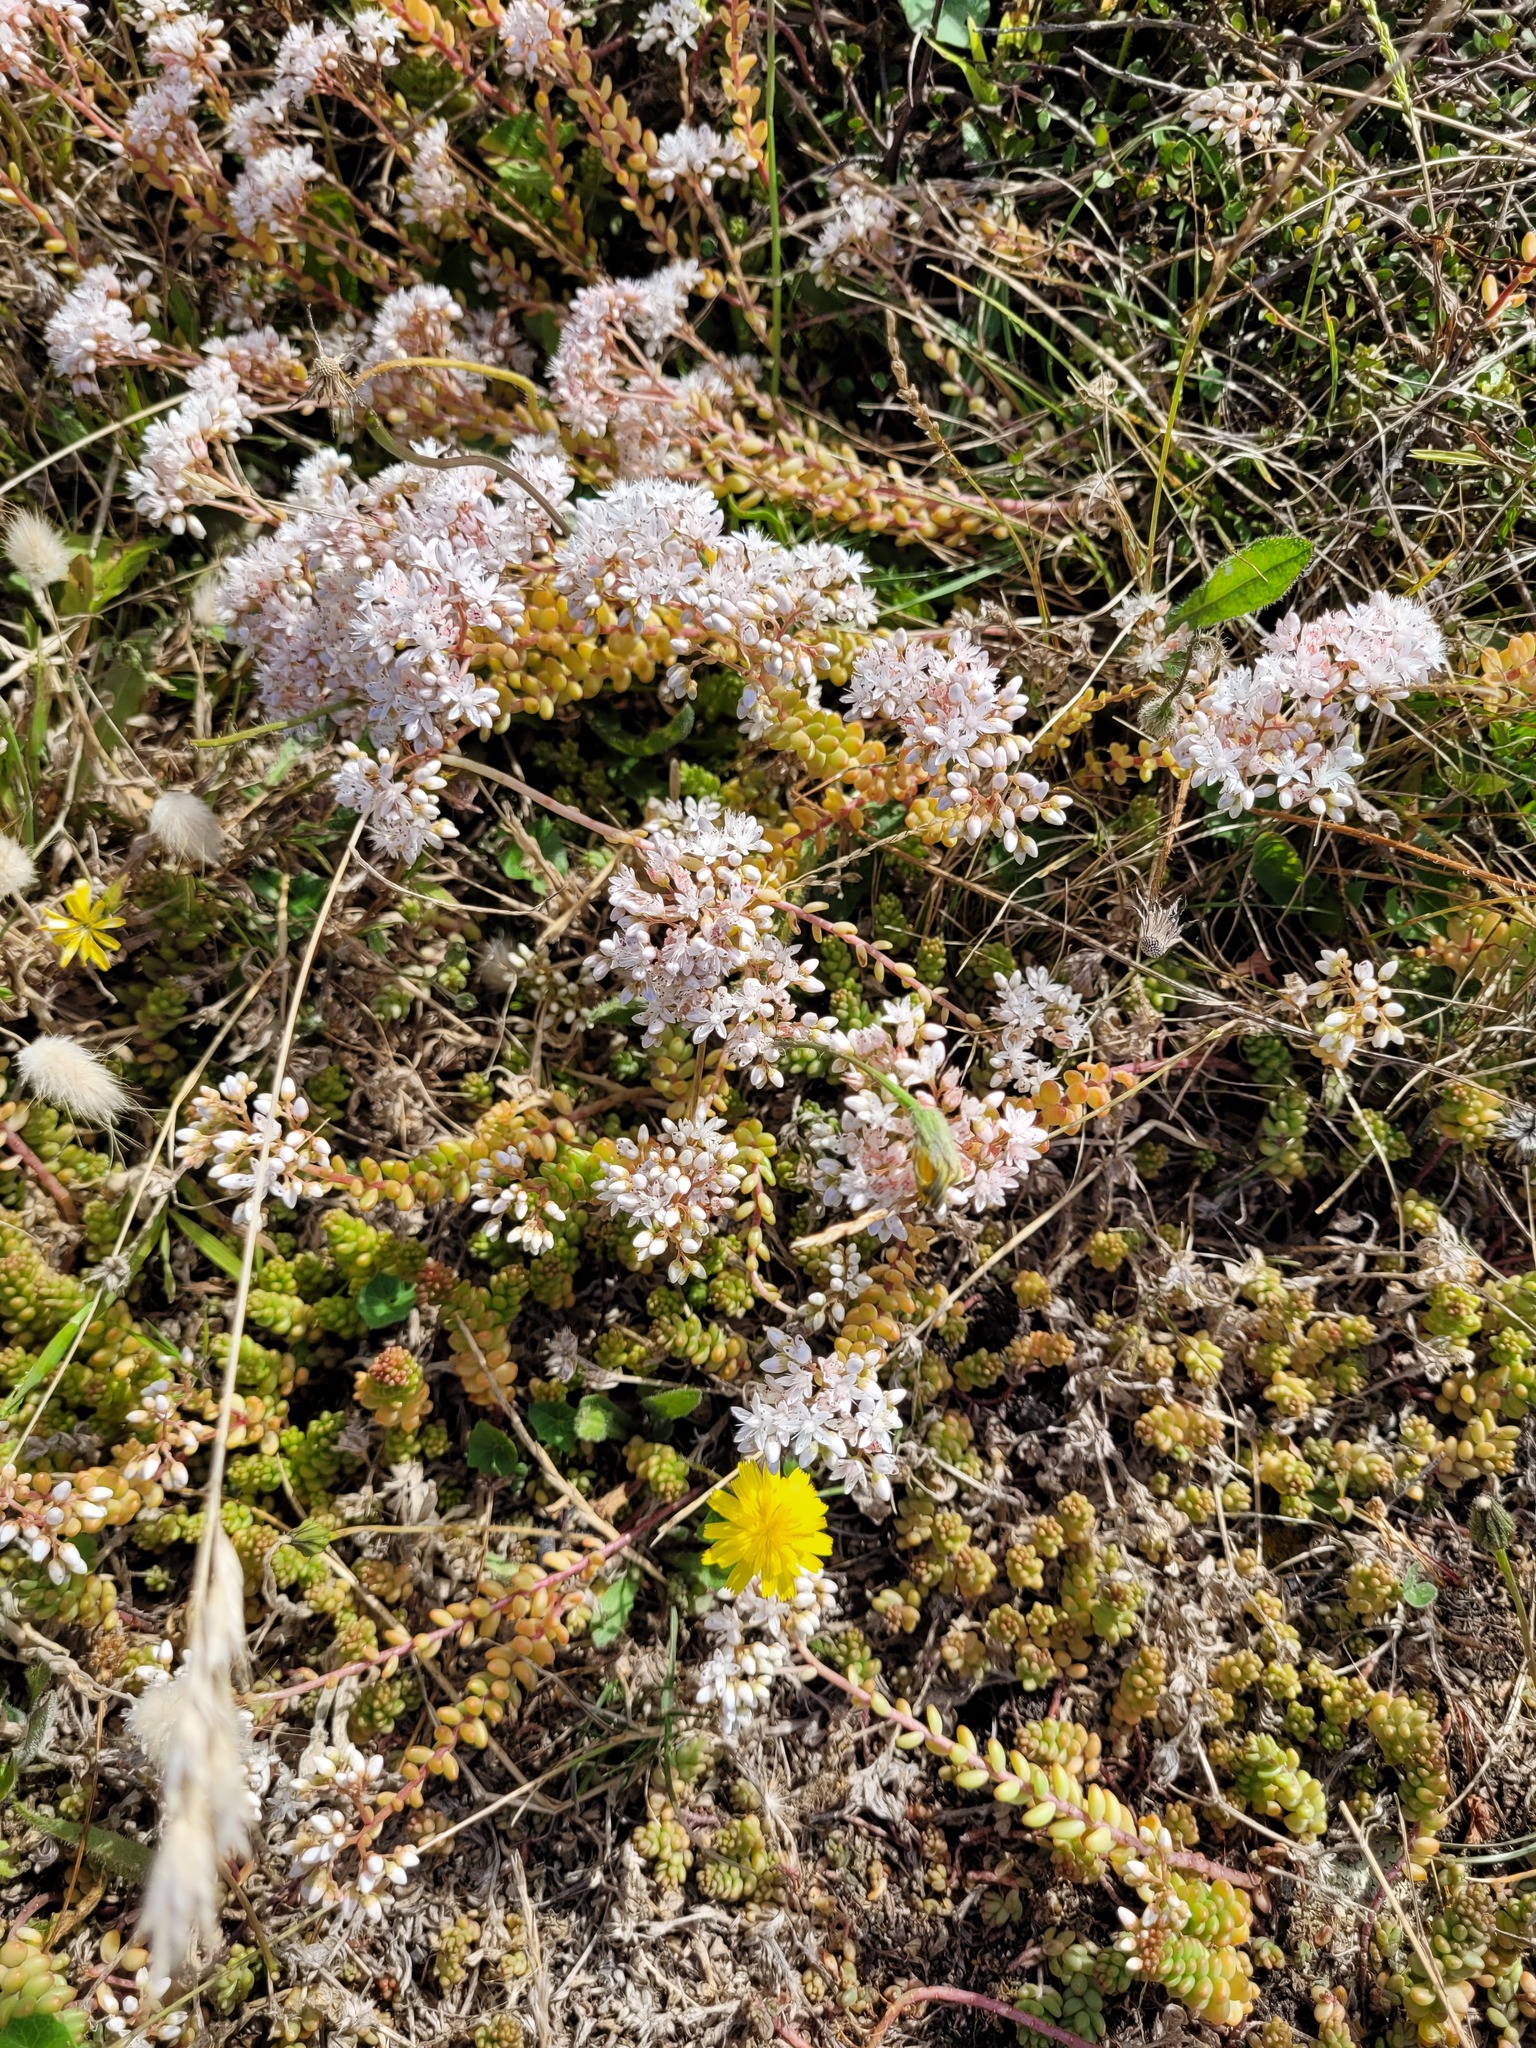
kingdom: Plantae
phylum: Tracheophyta
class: Magnoliopsida
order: Saxifragales
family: Crassulaceae
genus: Sedum
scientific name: Sedum album
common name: White stonecrop
